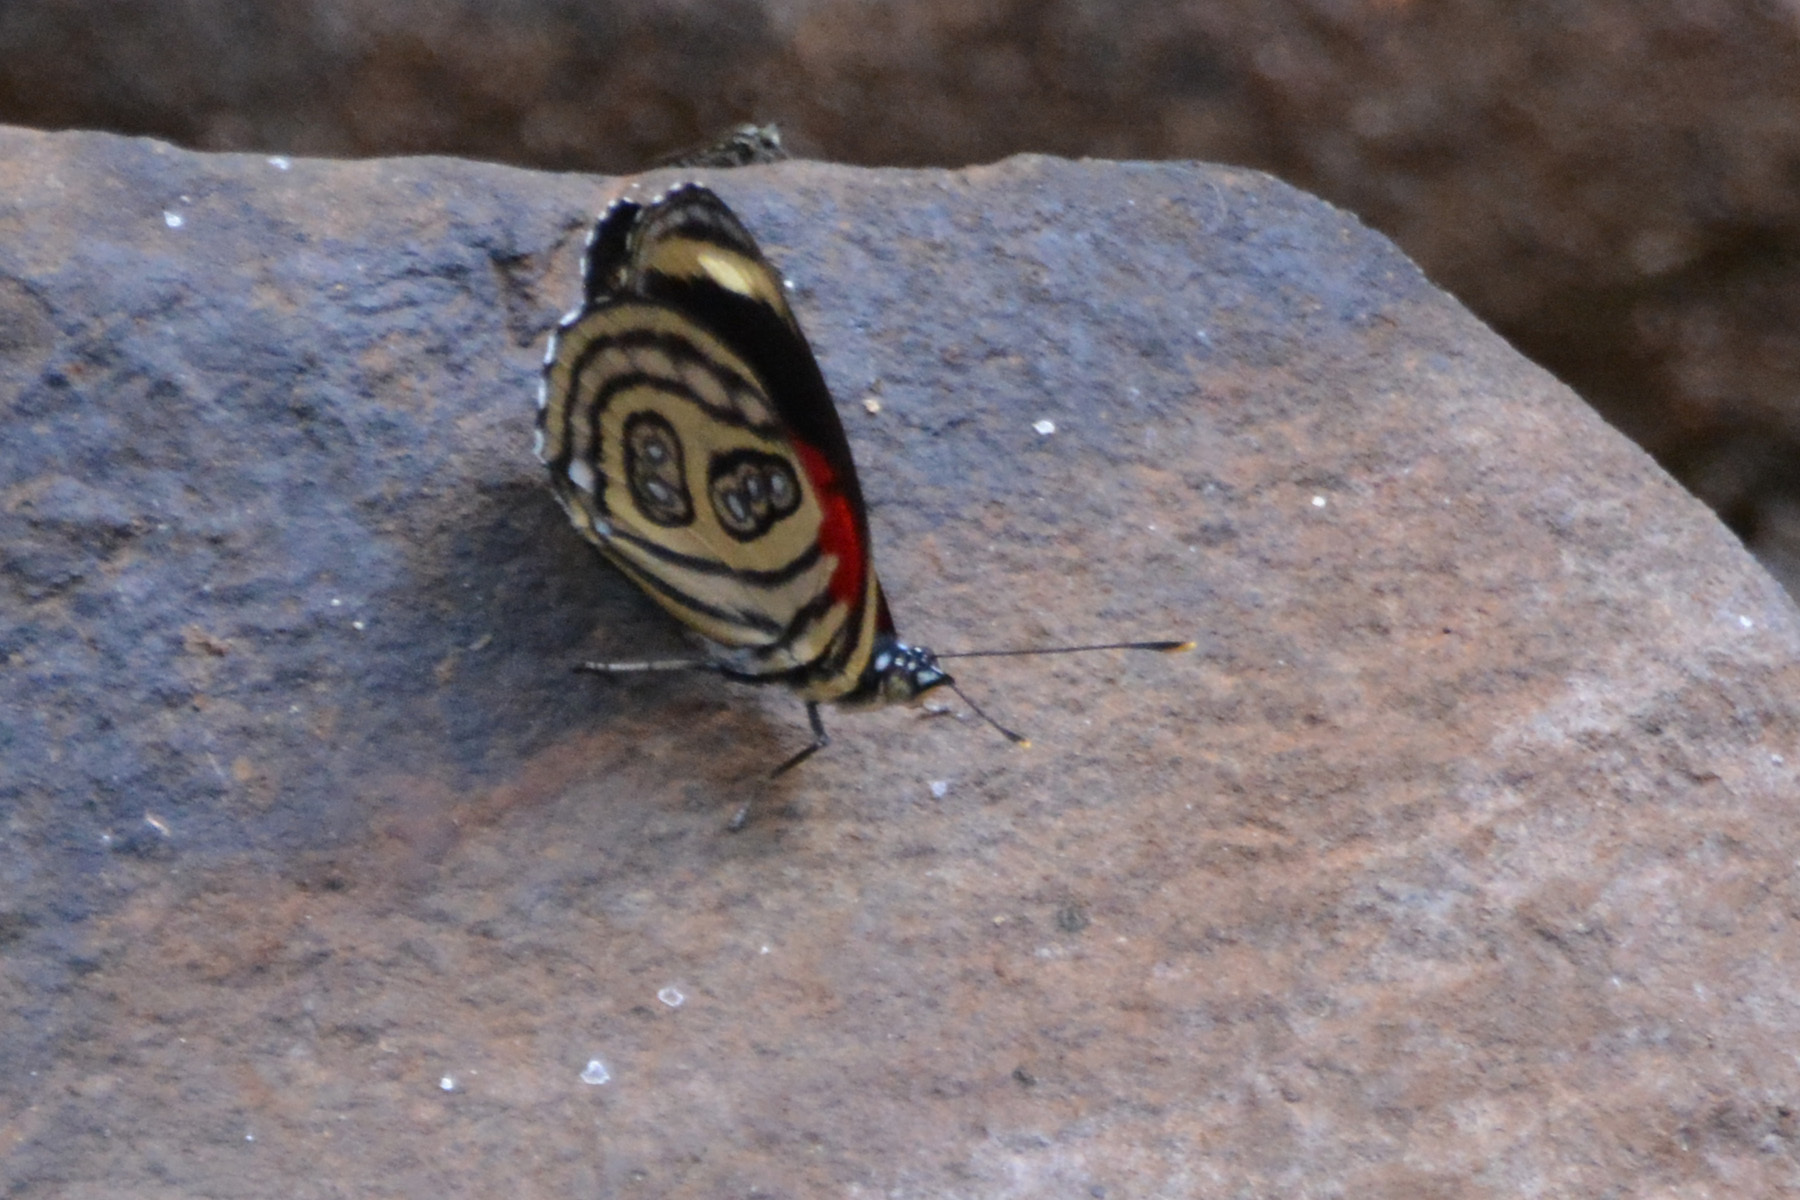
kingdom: Animalia
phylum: Arthropoda
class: Insecta
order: Lepidoptera
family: Nymphalidae
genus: Catagramma
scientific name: Catagramma pygas
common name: Godart's numberwing
